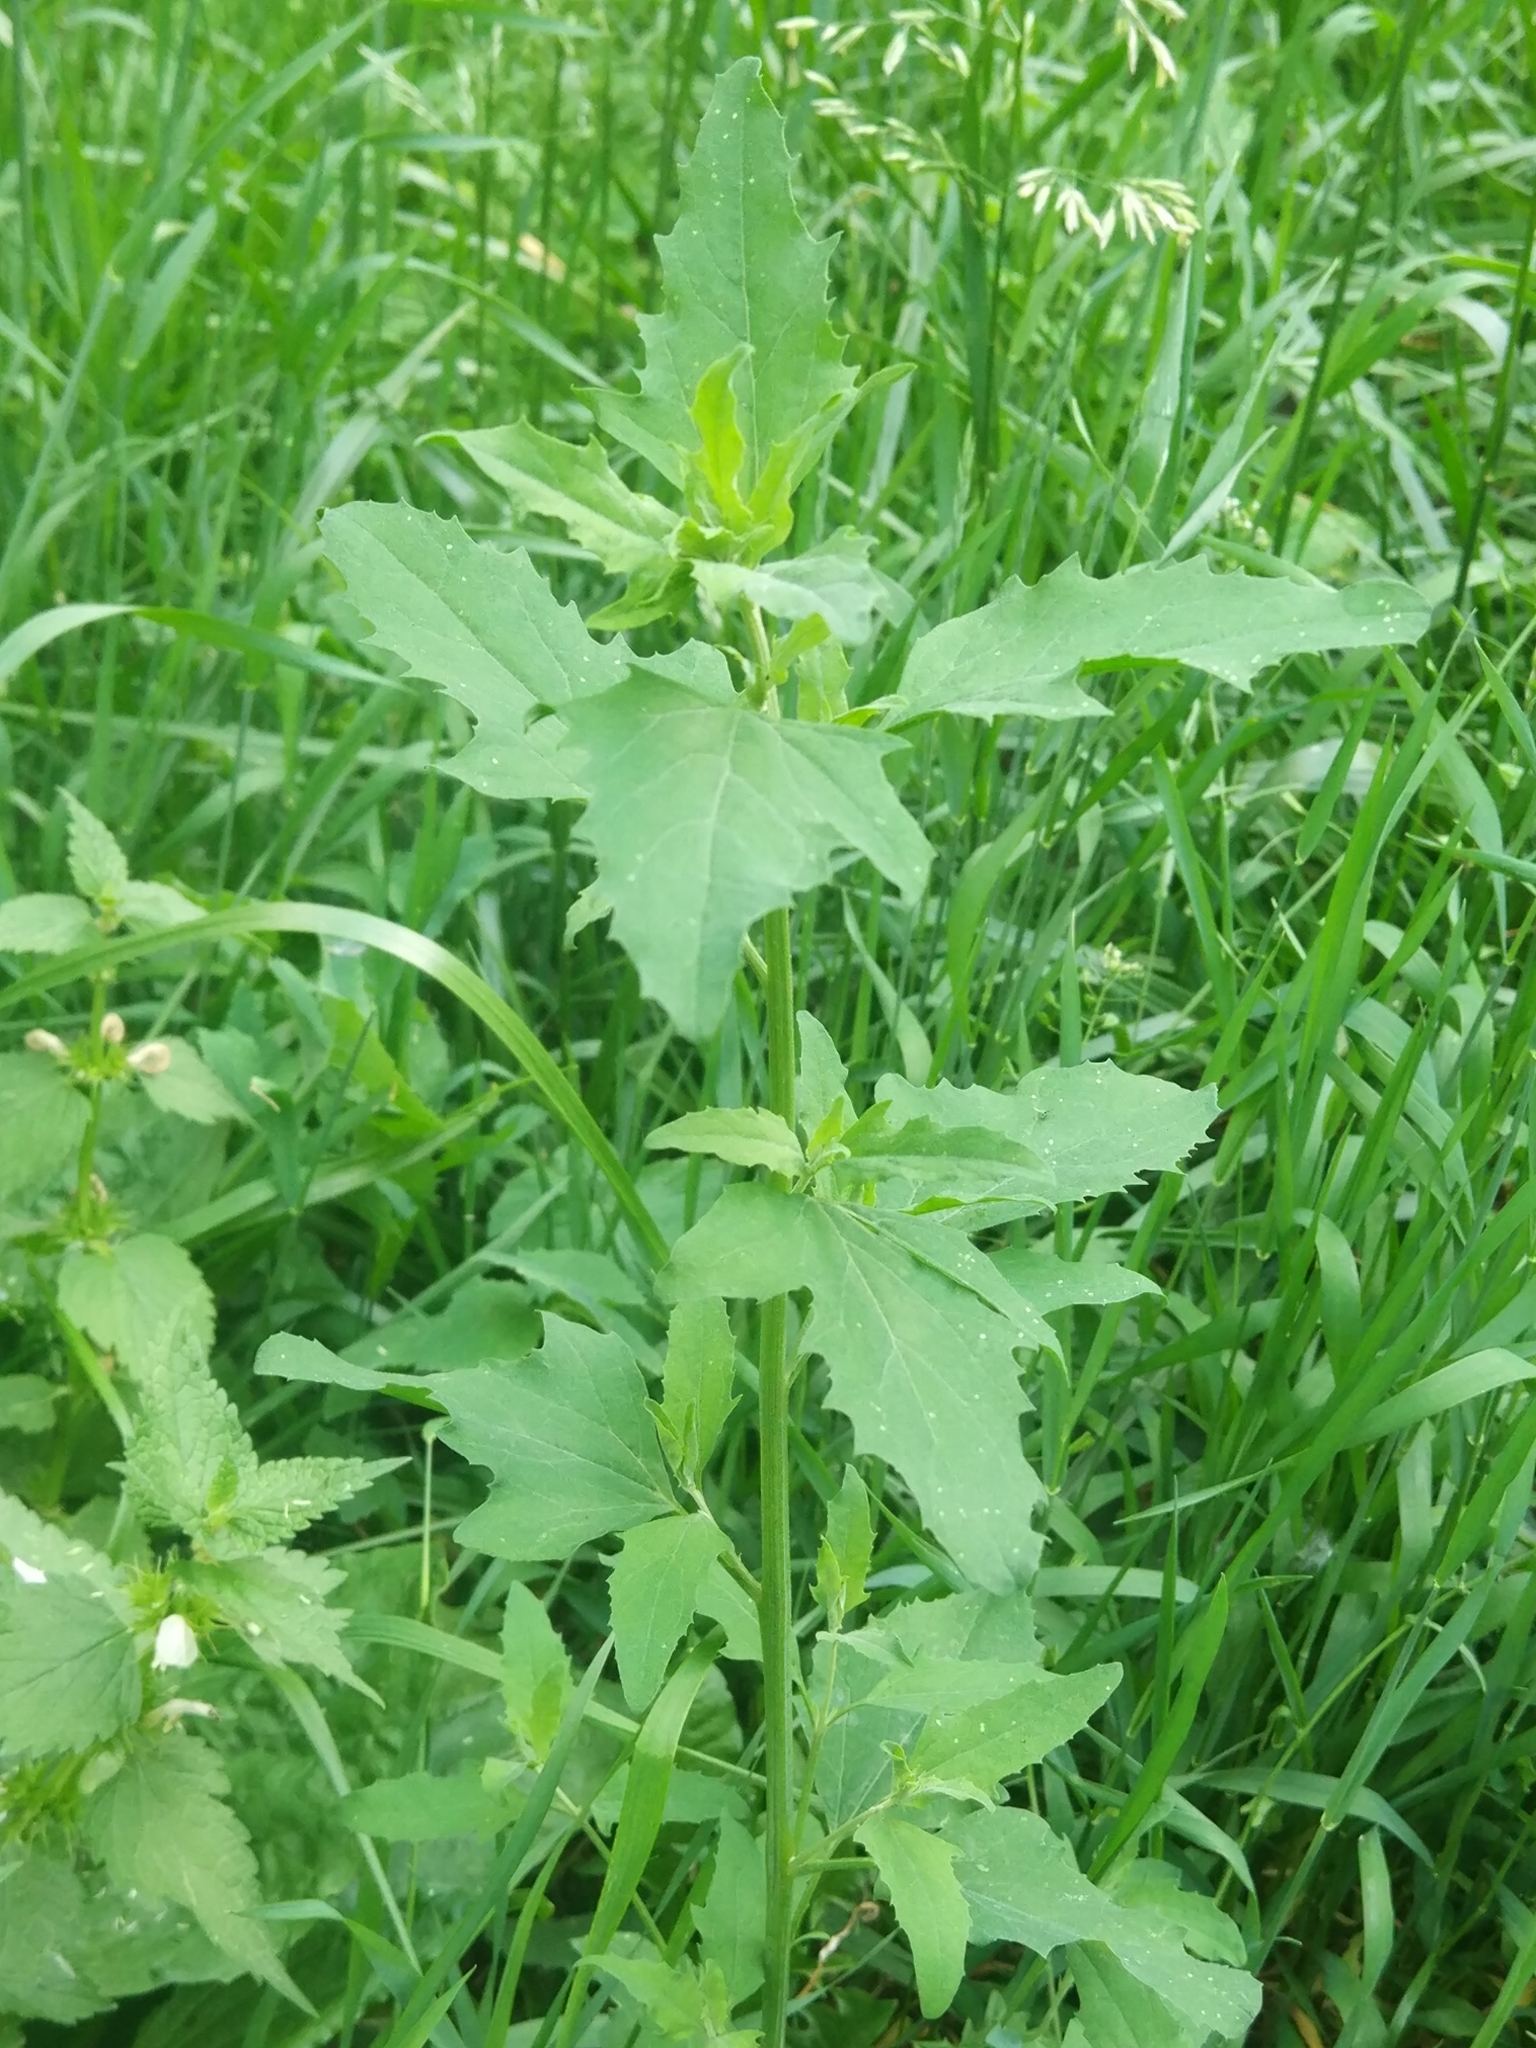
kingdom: Plantae
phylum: Tracheophyta
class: Magnoliopsida
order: Caryophyllales
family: Amaranthaceae
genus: Atriplex
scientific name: Atriplex patula
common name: Common orache
